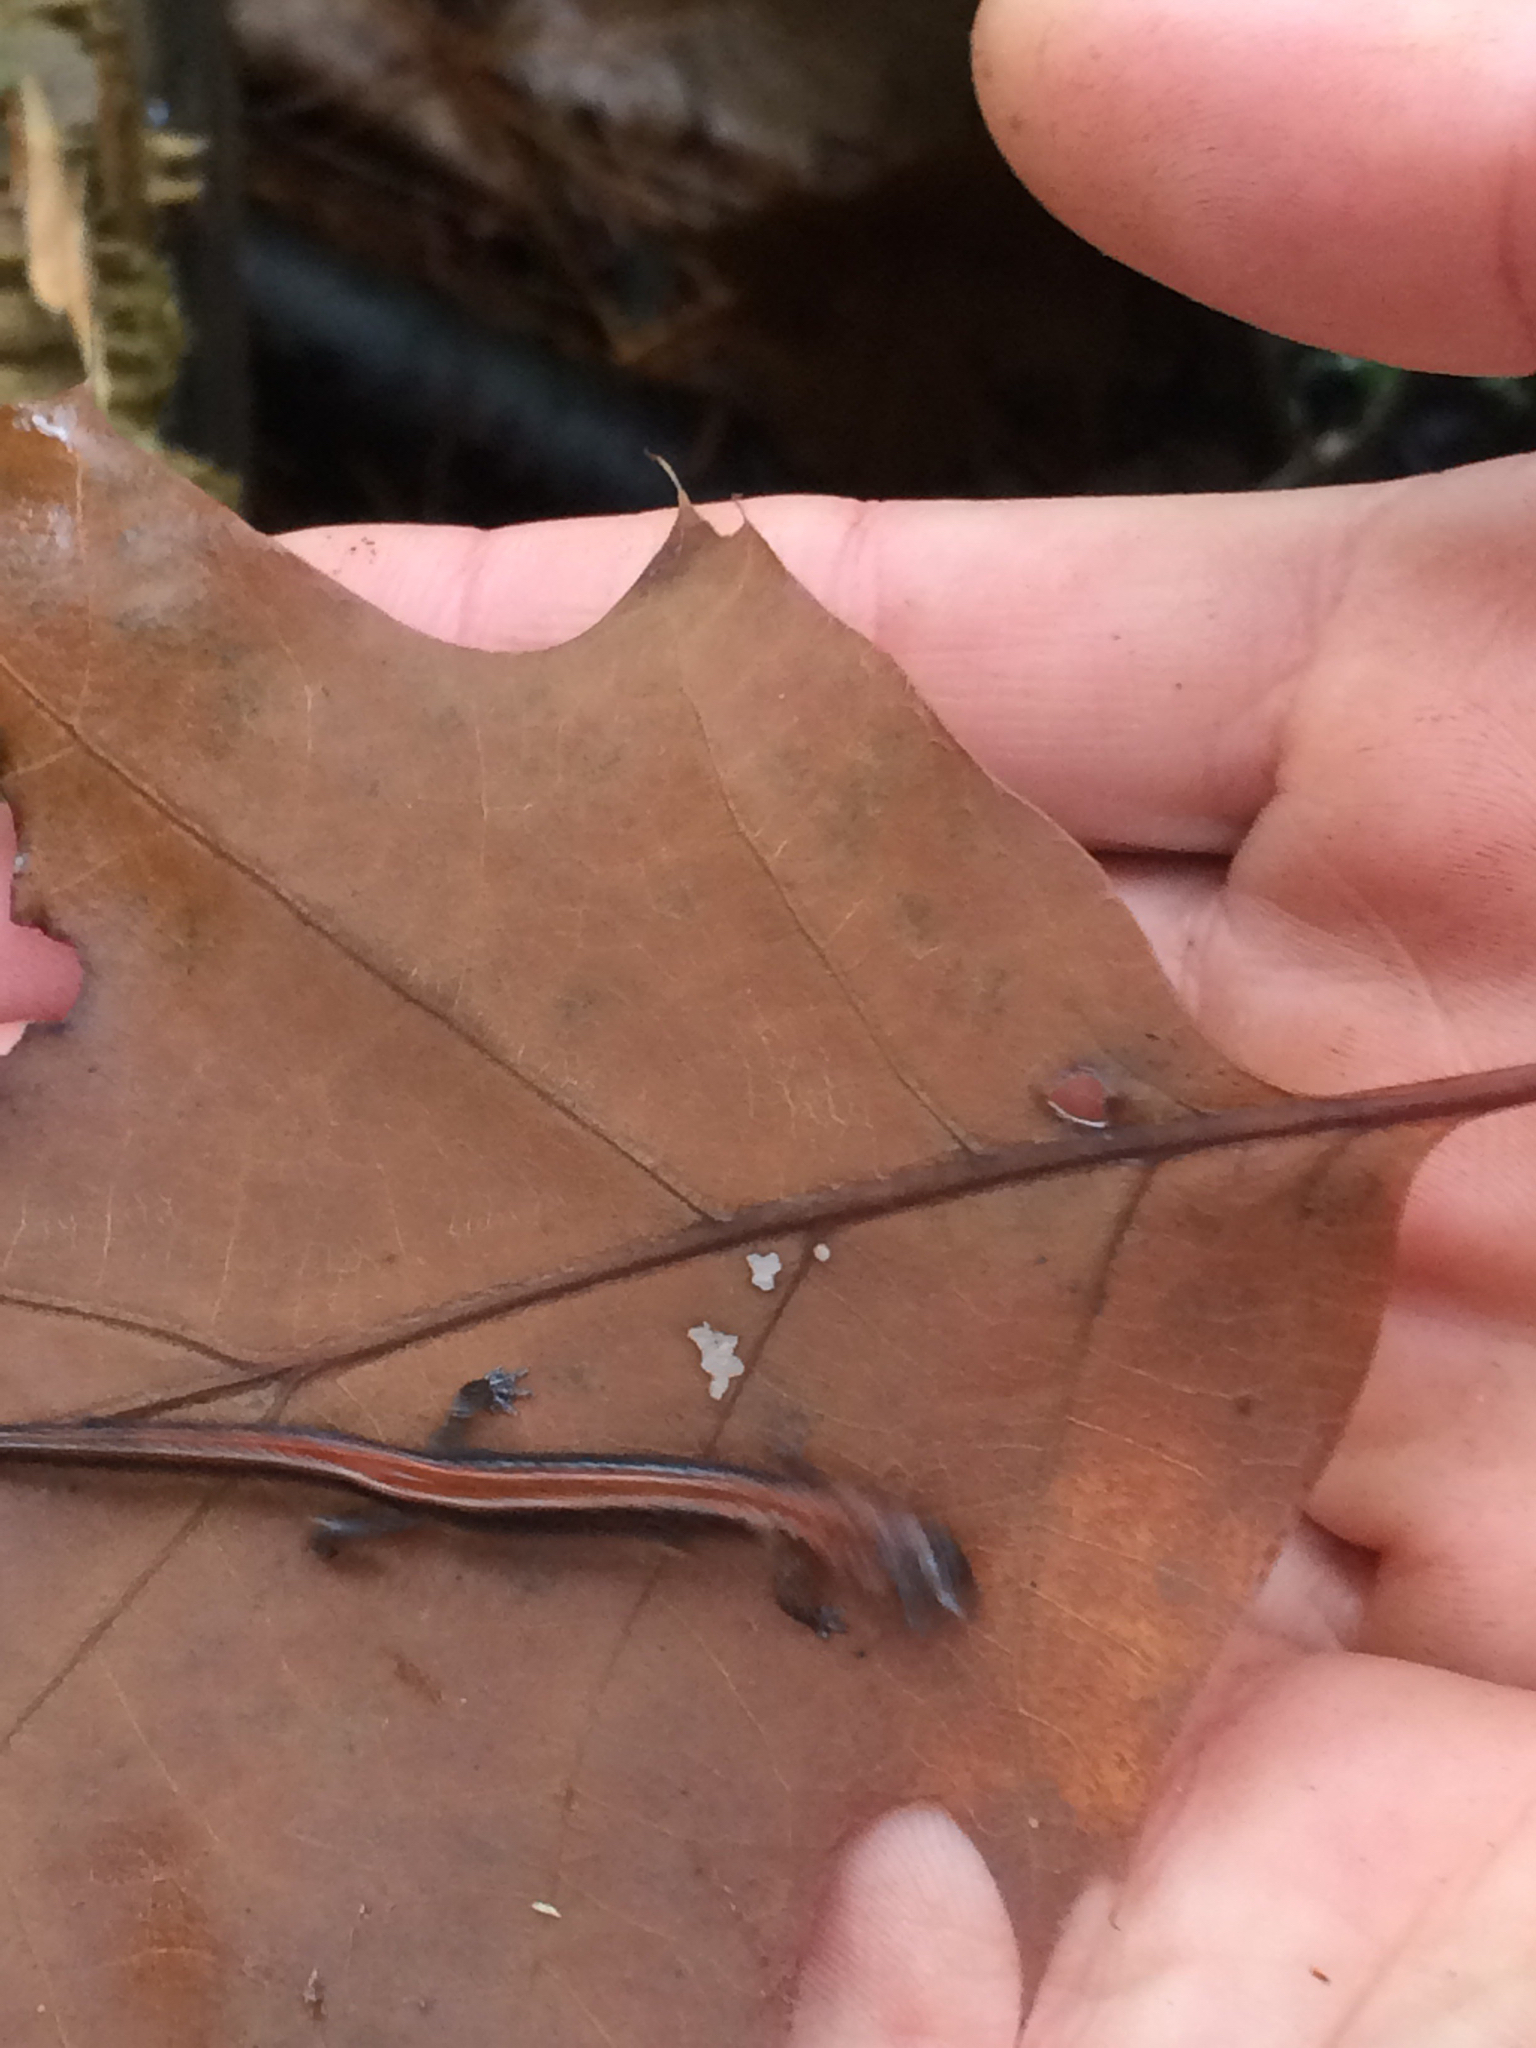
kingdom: Animalia
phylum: Chordata
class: Amphibia
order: Caudata
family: Plethodontidae
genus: Plethodon
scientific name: Plethodon cinereus
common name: Redback salamander
